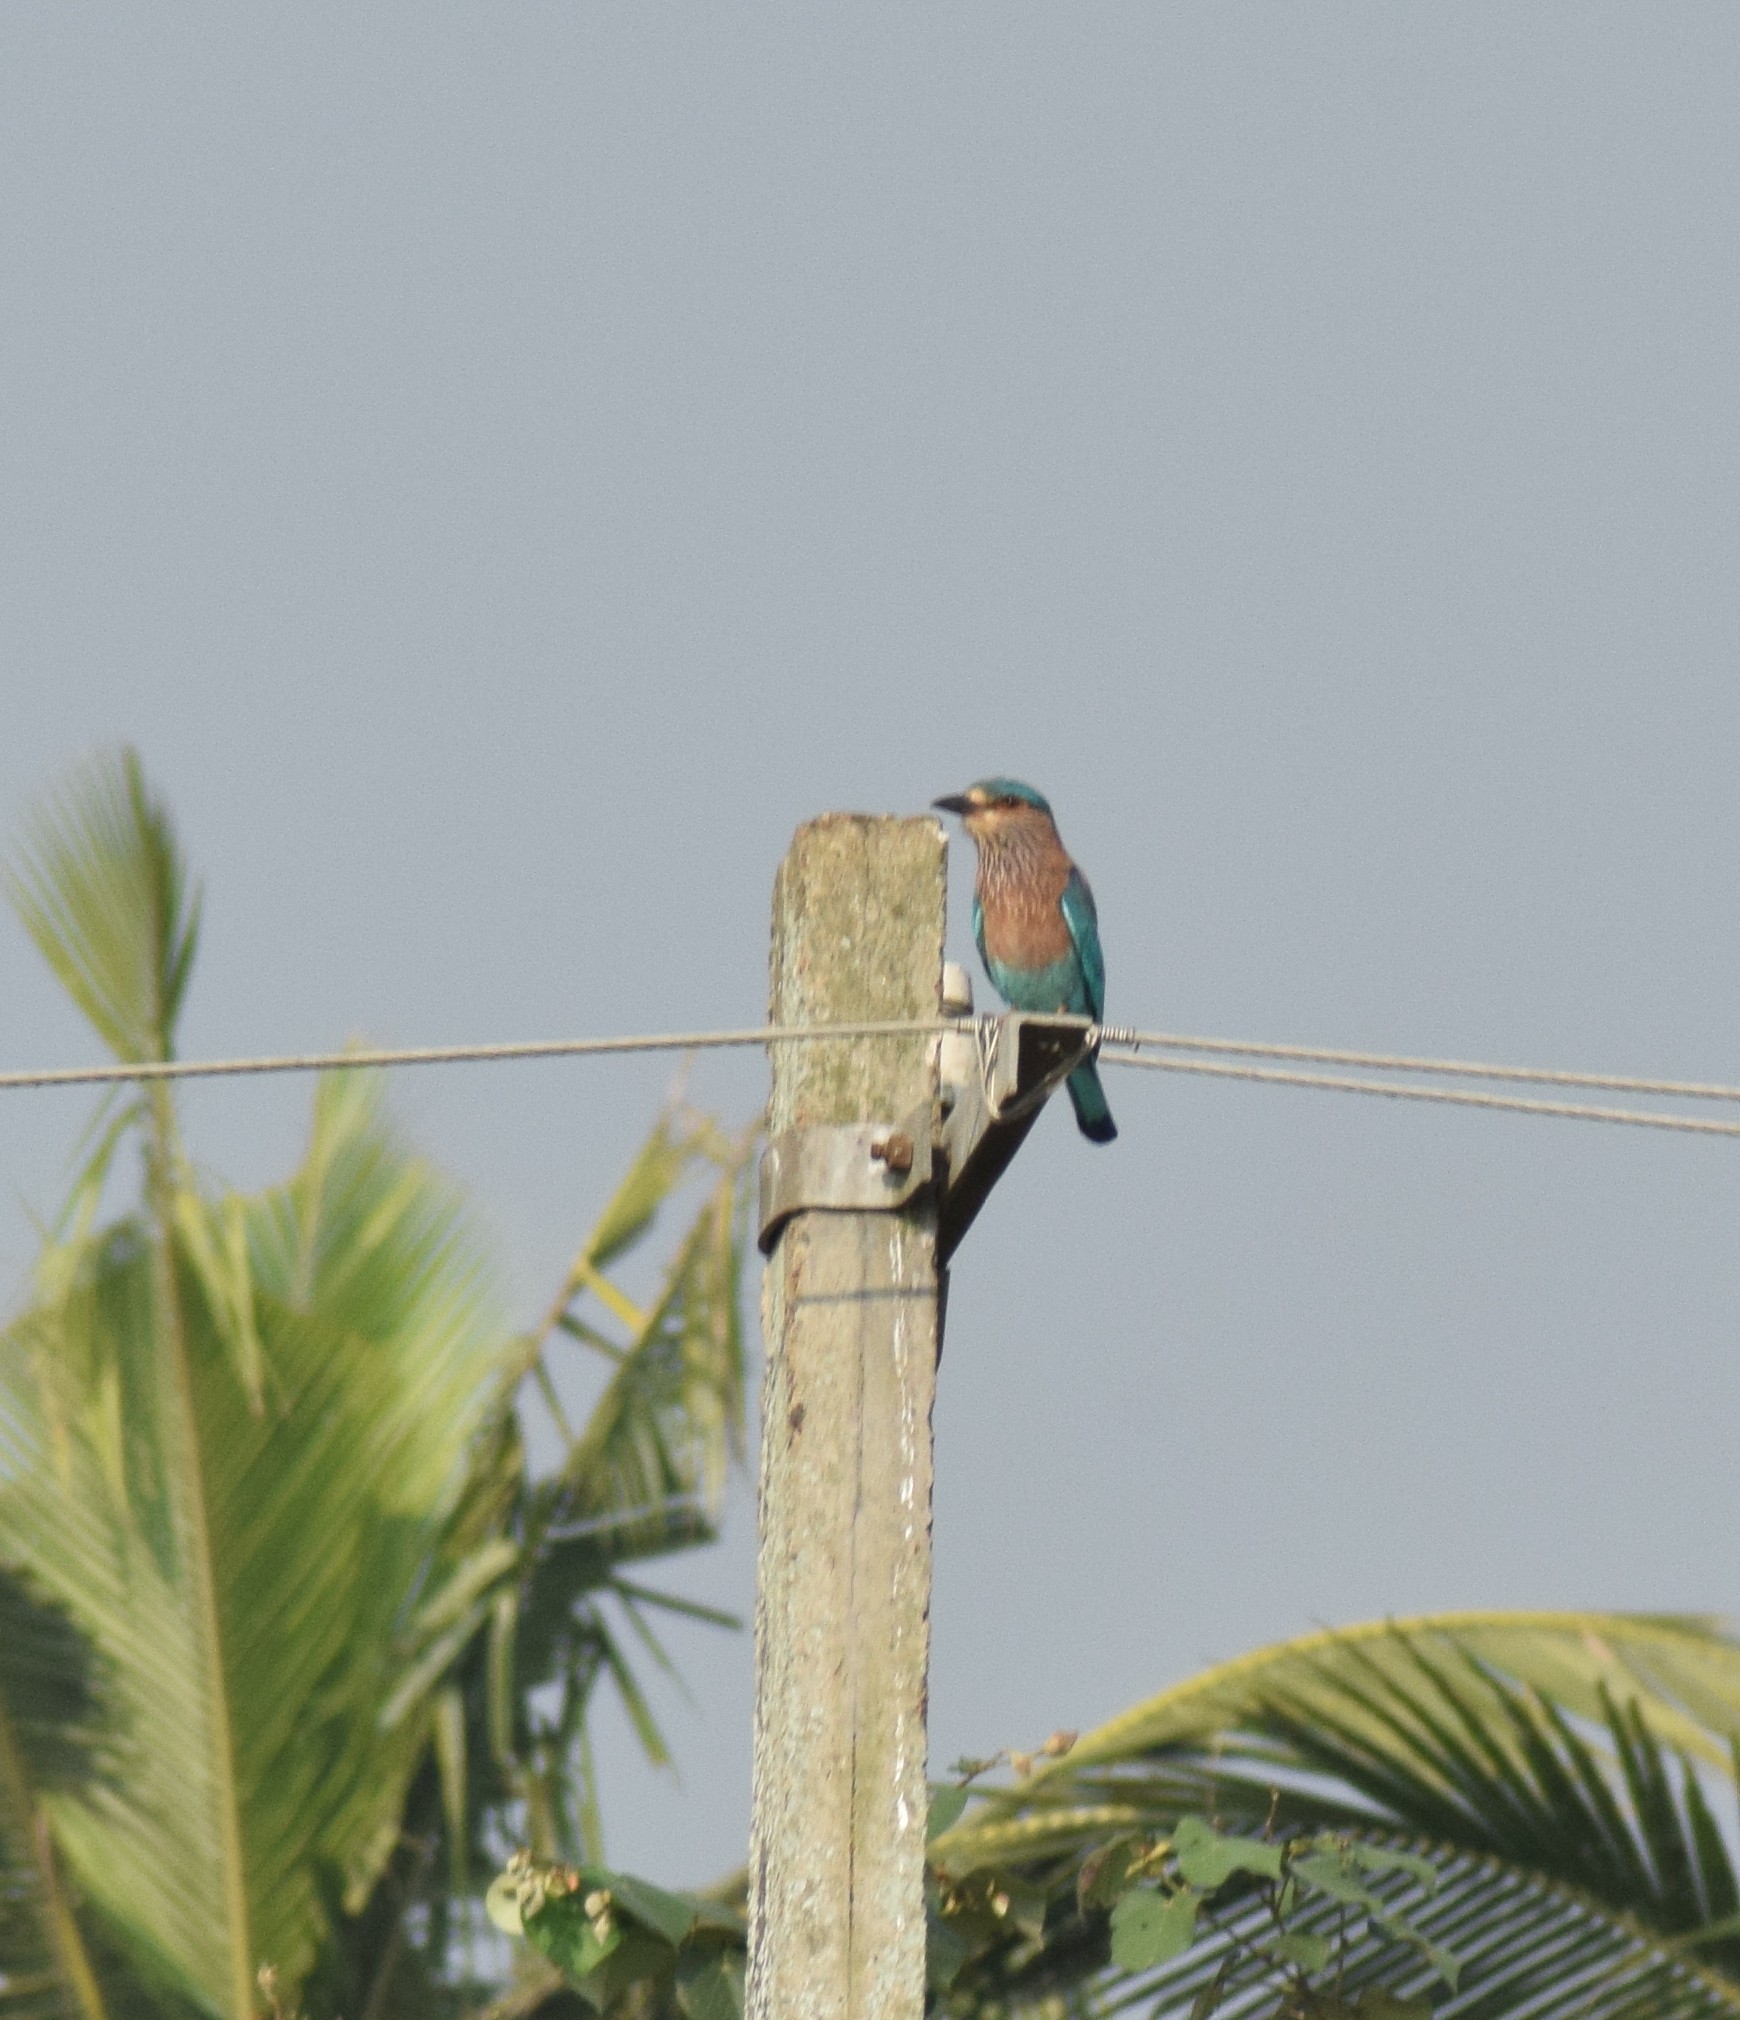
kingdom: Animalia
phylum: Chordata
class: Aves
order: Coraciiformes
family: Coraciidae
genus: Coracias
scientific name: Coracias benghalensis
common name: Indian roller
